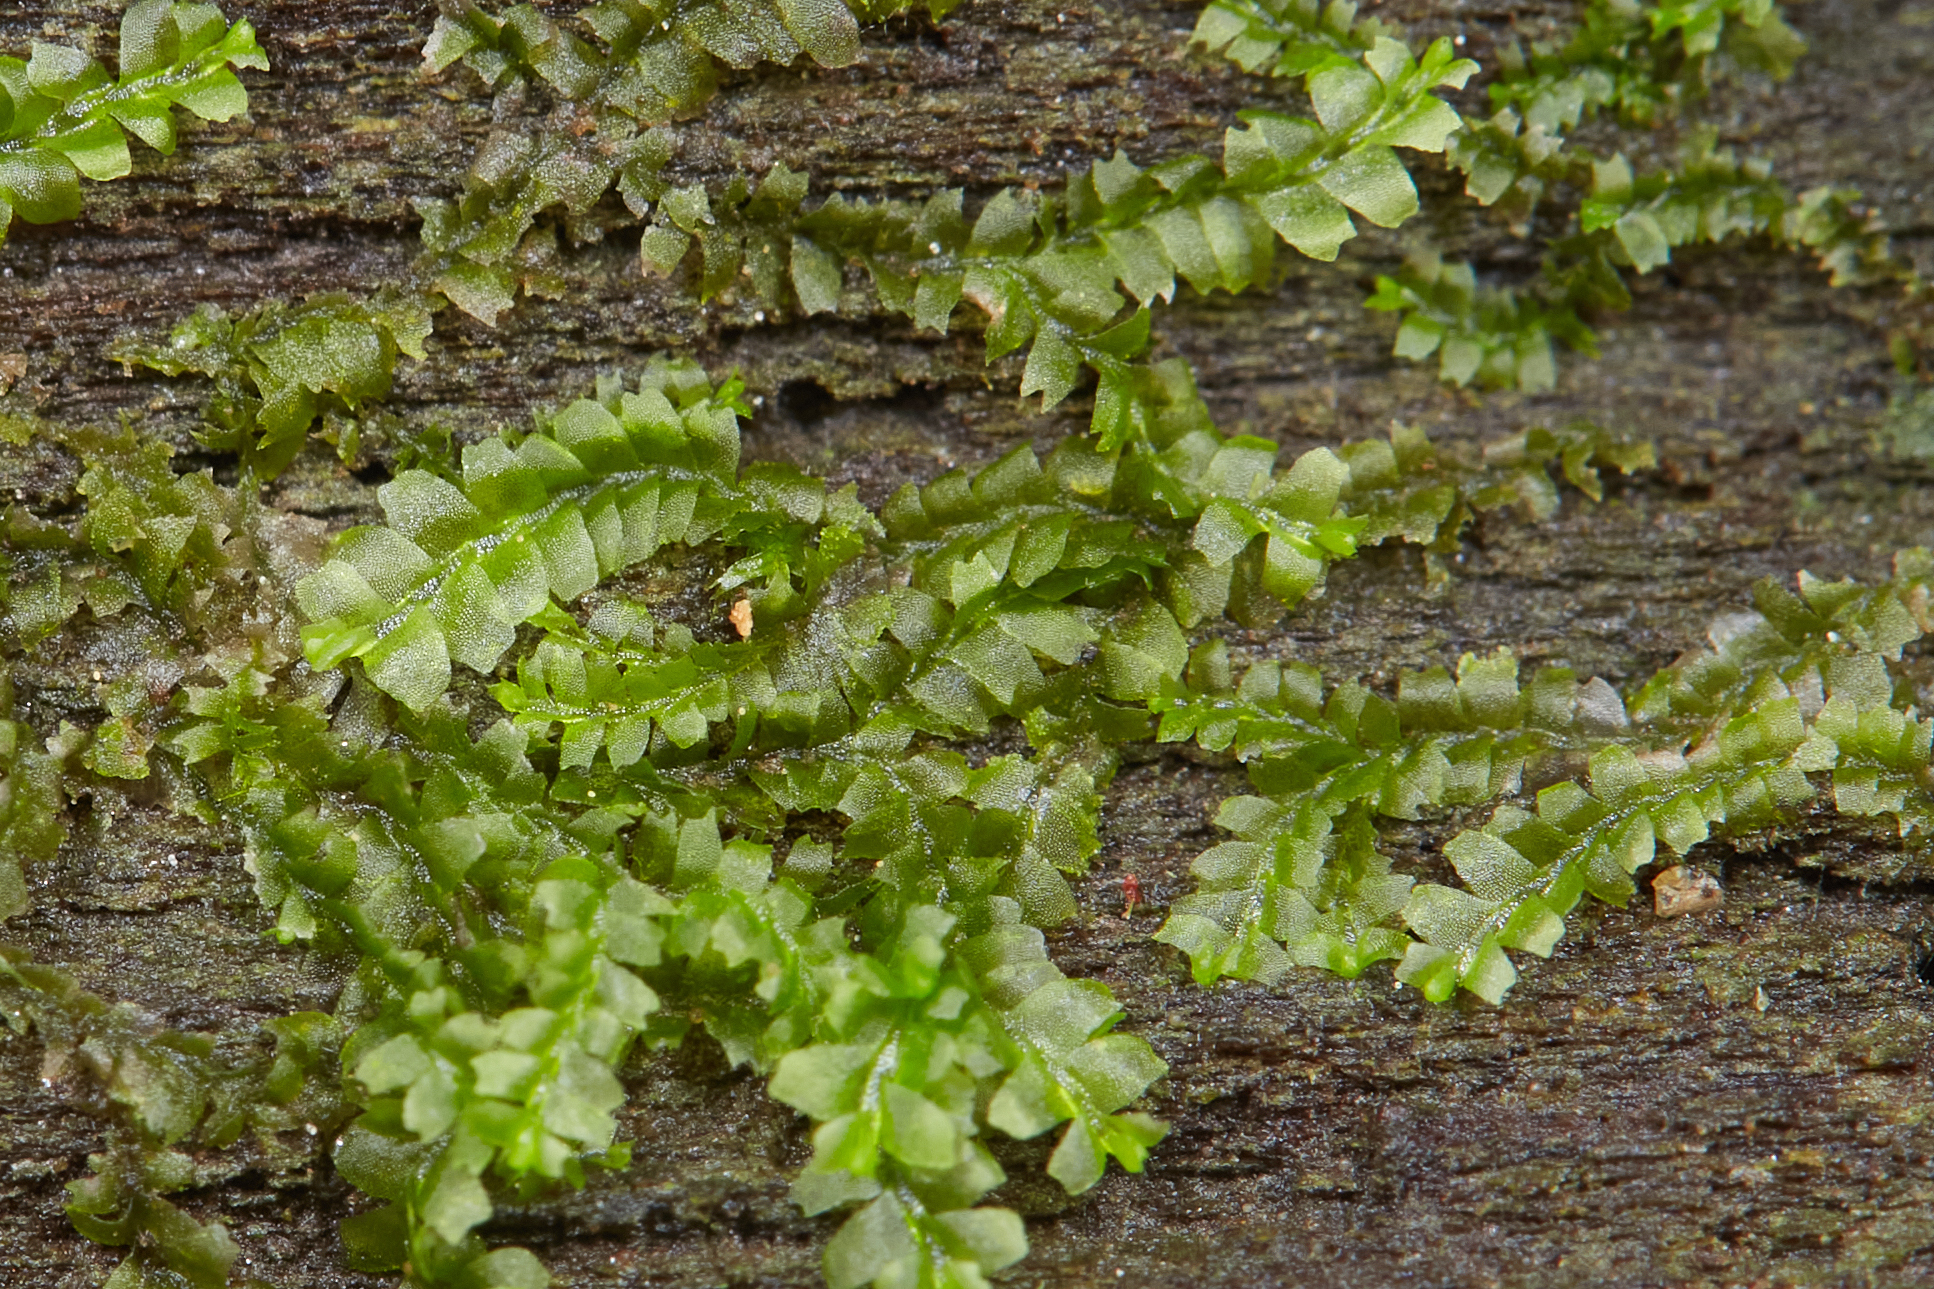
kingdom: Plantae
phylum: Marchantiophyta
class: Jungermanniopsida
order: Jungermanniales
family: Lophocoleaceae
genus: Lophocolea
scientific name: Lophocolea heterophylla
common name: Variable-leaved crestwort
